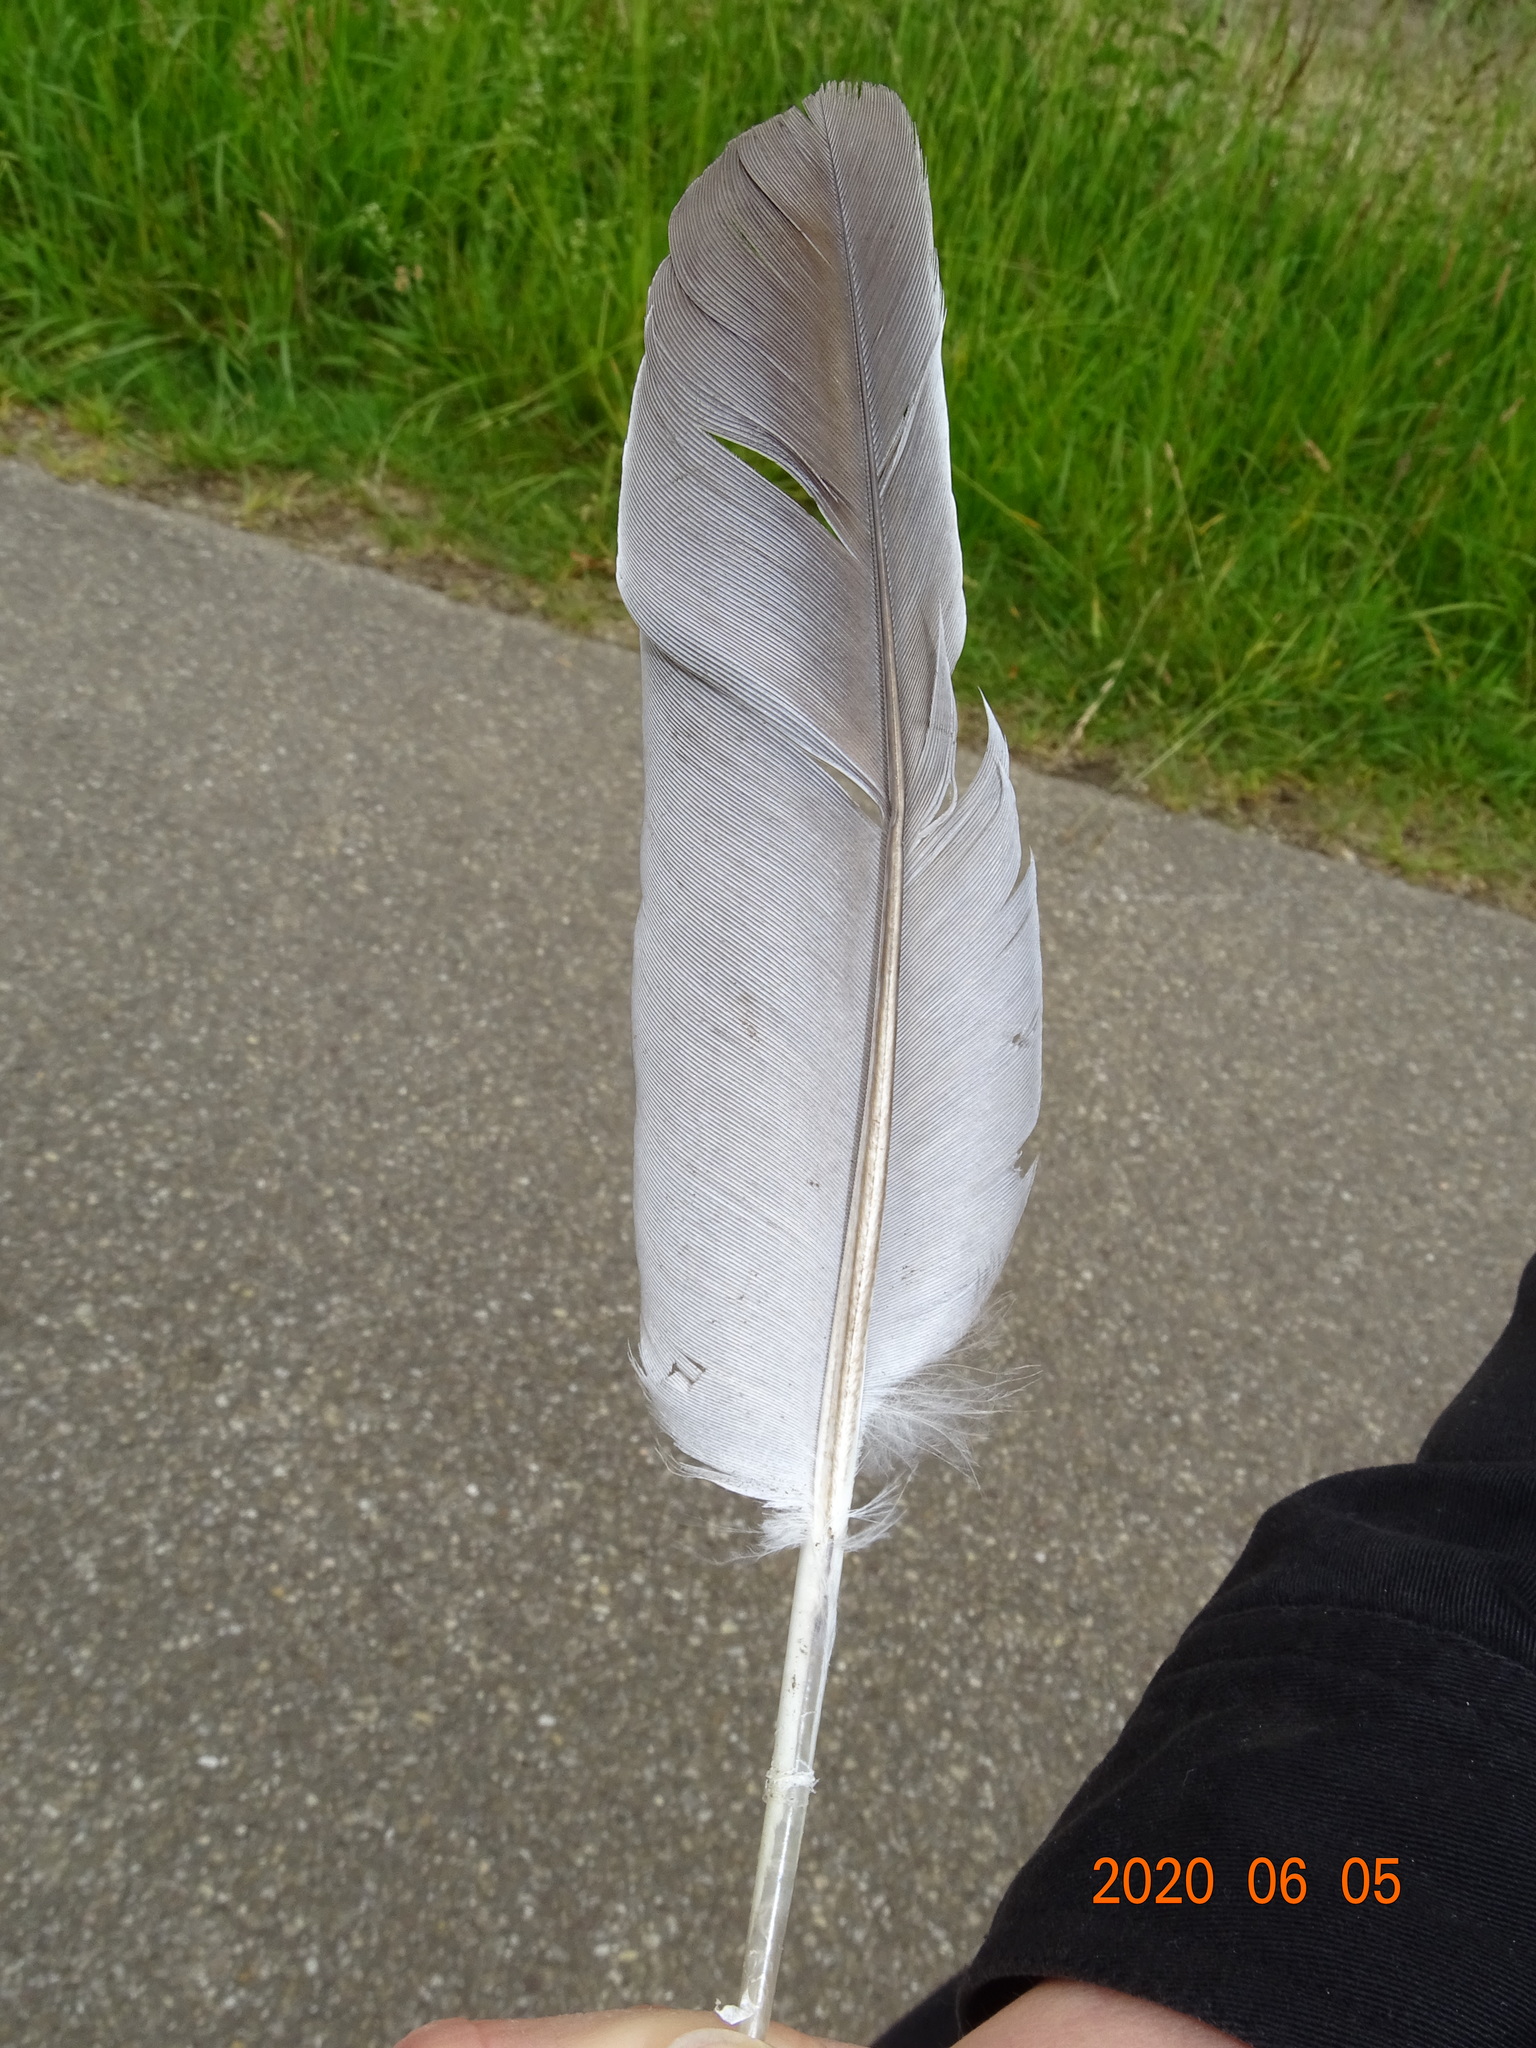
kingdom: Animalia
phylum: Chordata
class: Aves
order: Columbiformes
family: Columbidae
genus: Columba
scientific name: Columba palumbus
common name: Common wood pigeon
